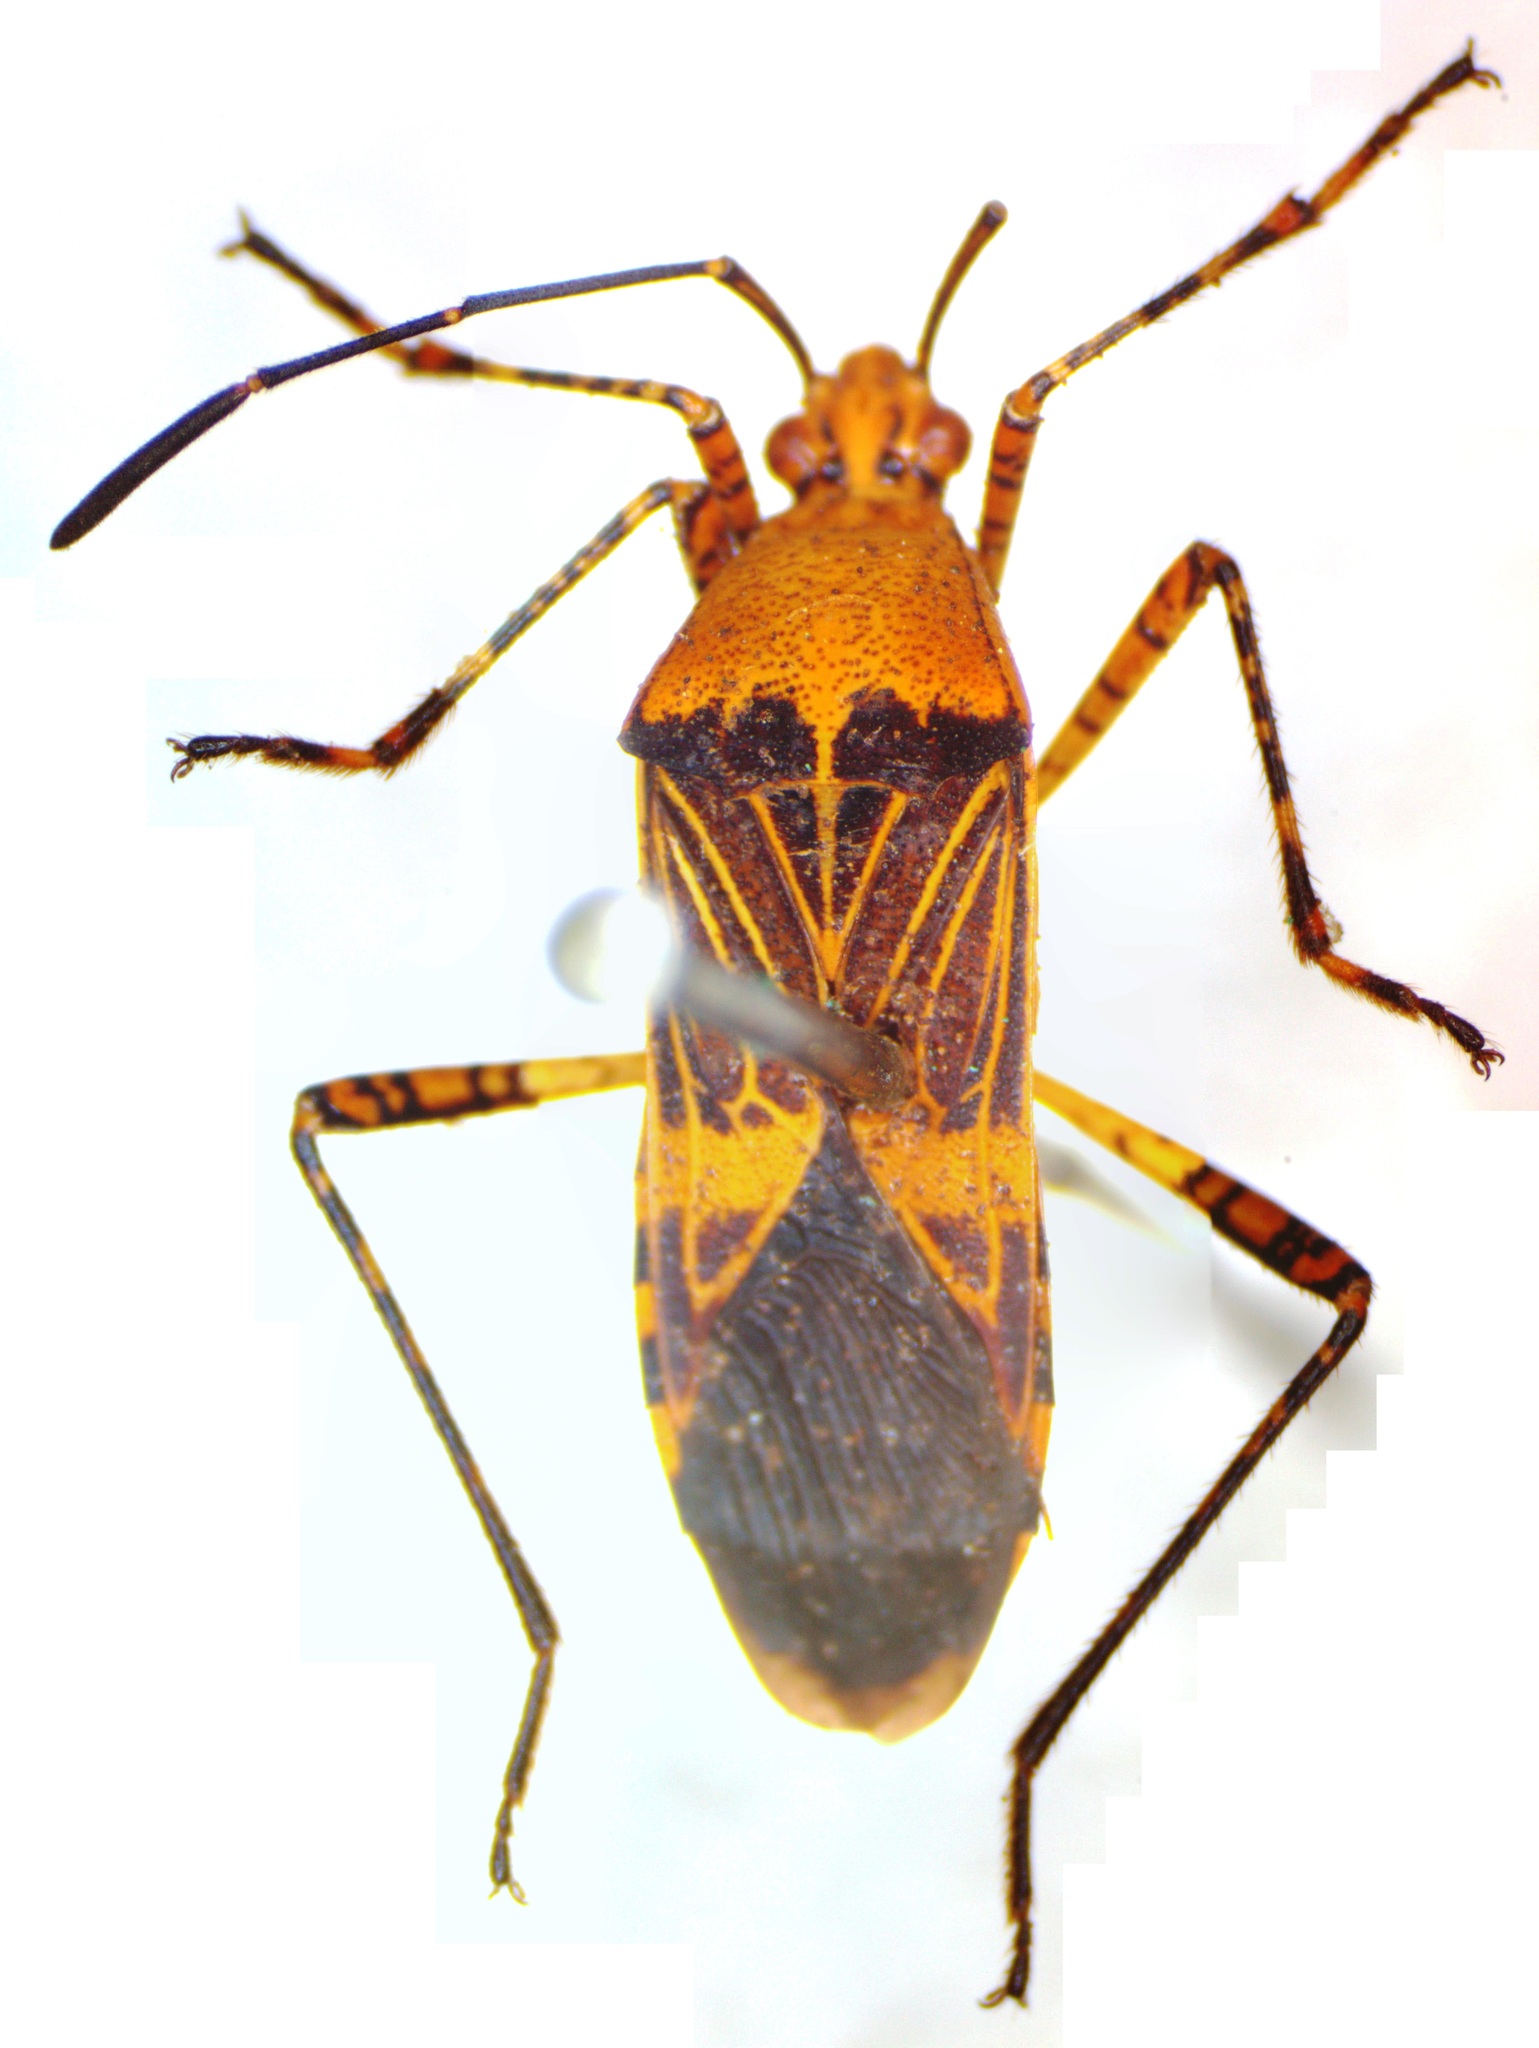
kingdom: Animalia
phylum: Arthropoda
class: Insecta
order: Hemiptera
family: Coreidae
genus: Hypselonotus
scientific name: Hypselonotus lineatus
